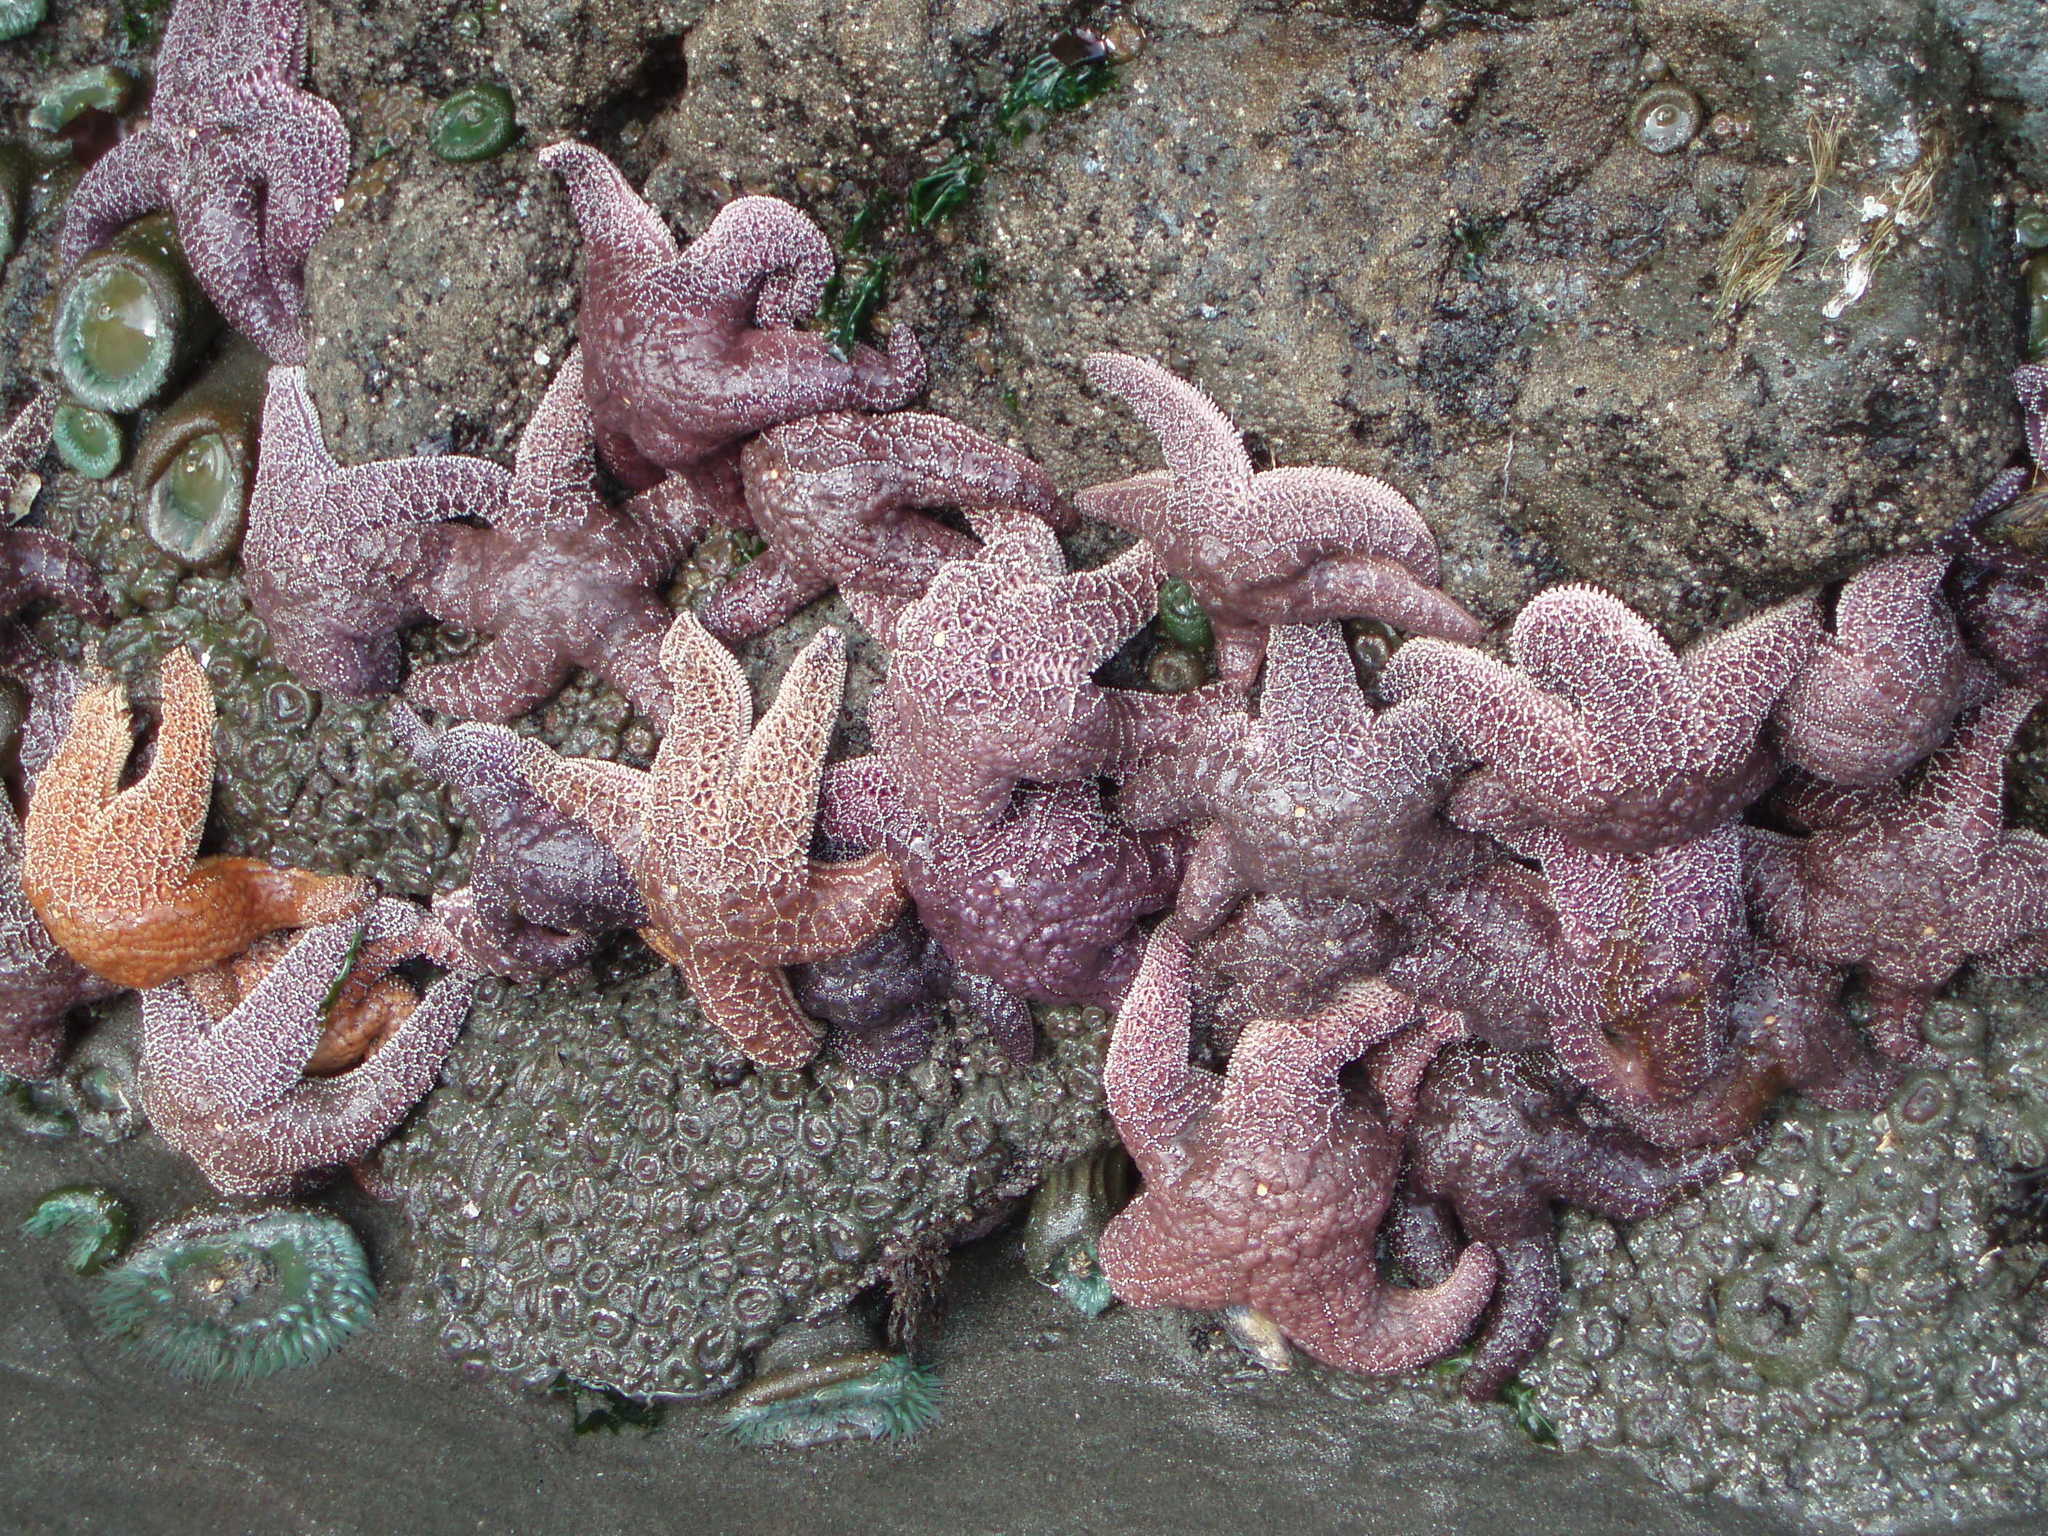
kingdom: Animalia
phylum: Echinodermata
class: Asteroidea
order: Forcipulatida
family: Asteriidae
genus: Pisaster
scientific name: Pisaster ochraceus
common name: Ochre stars
